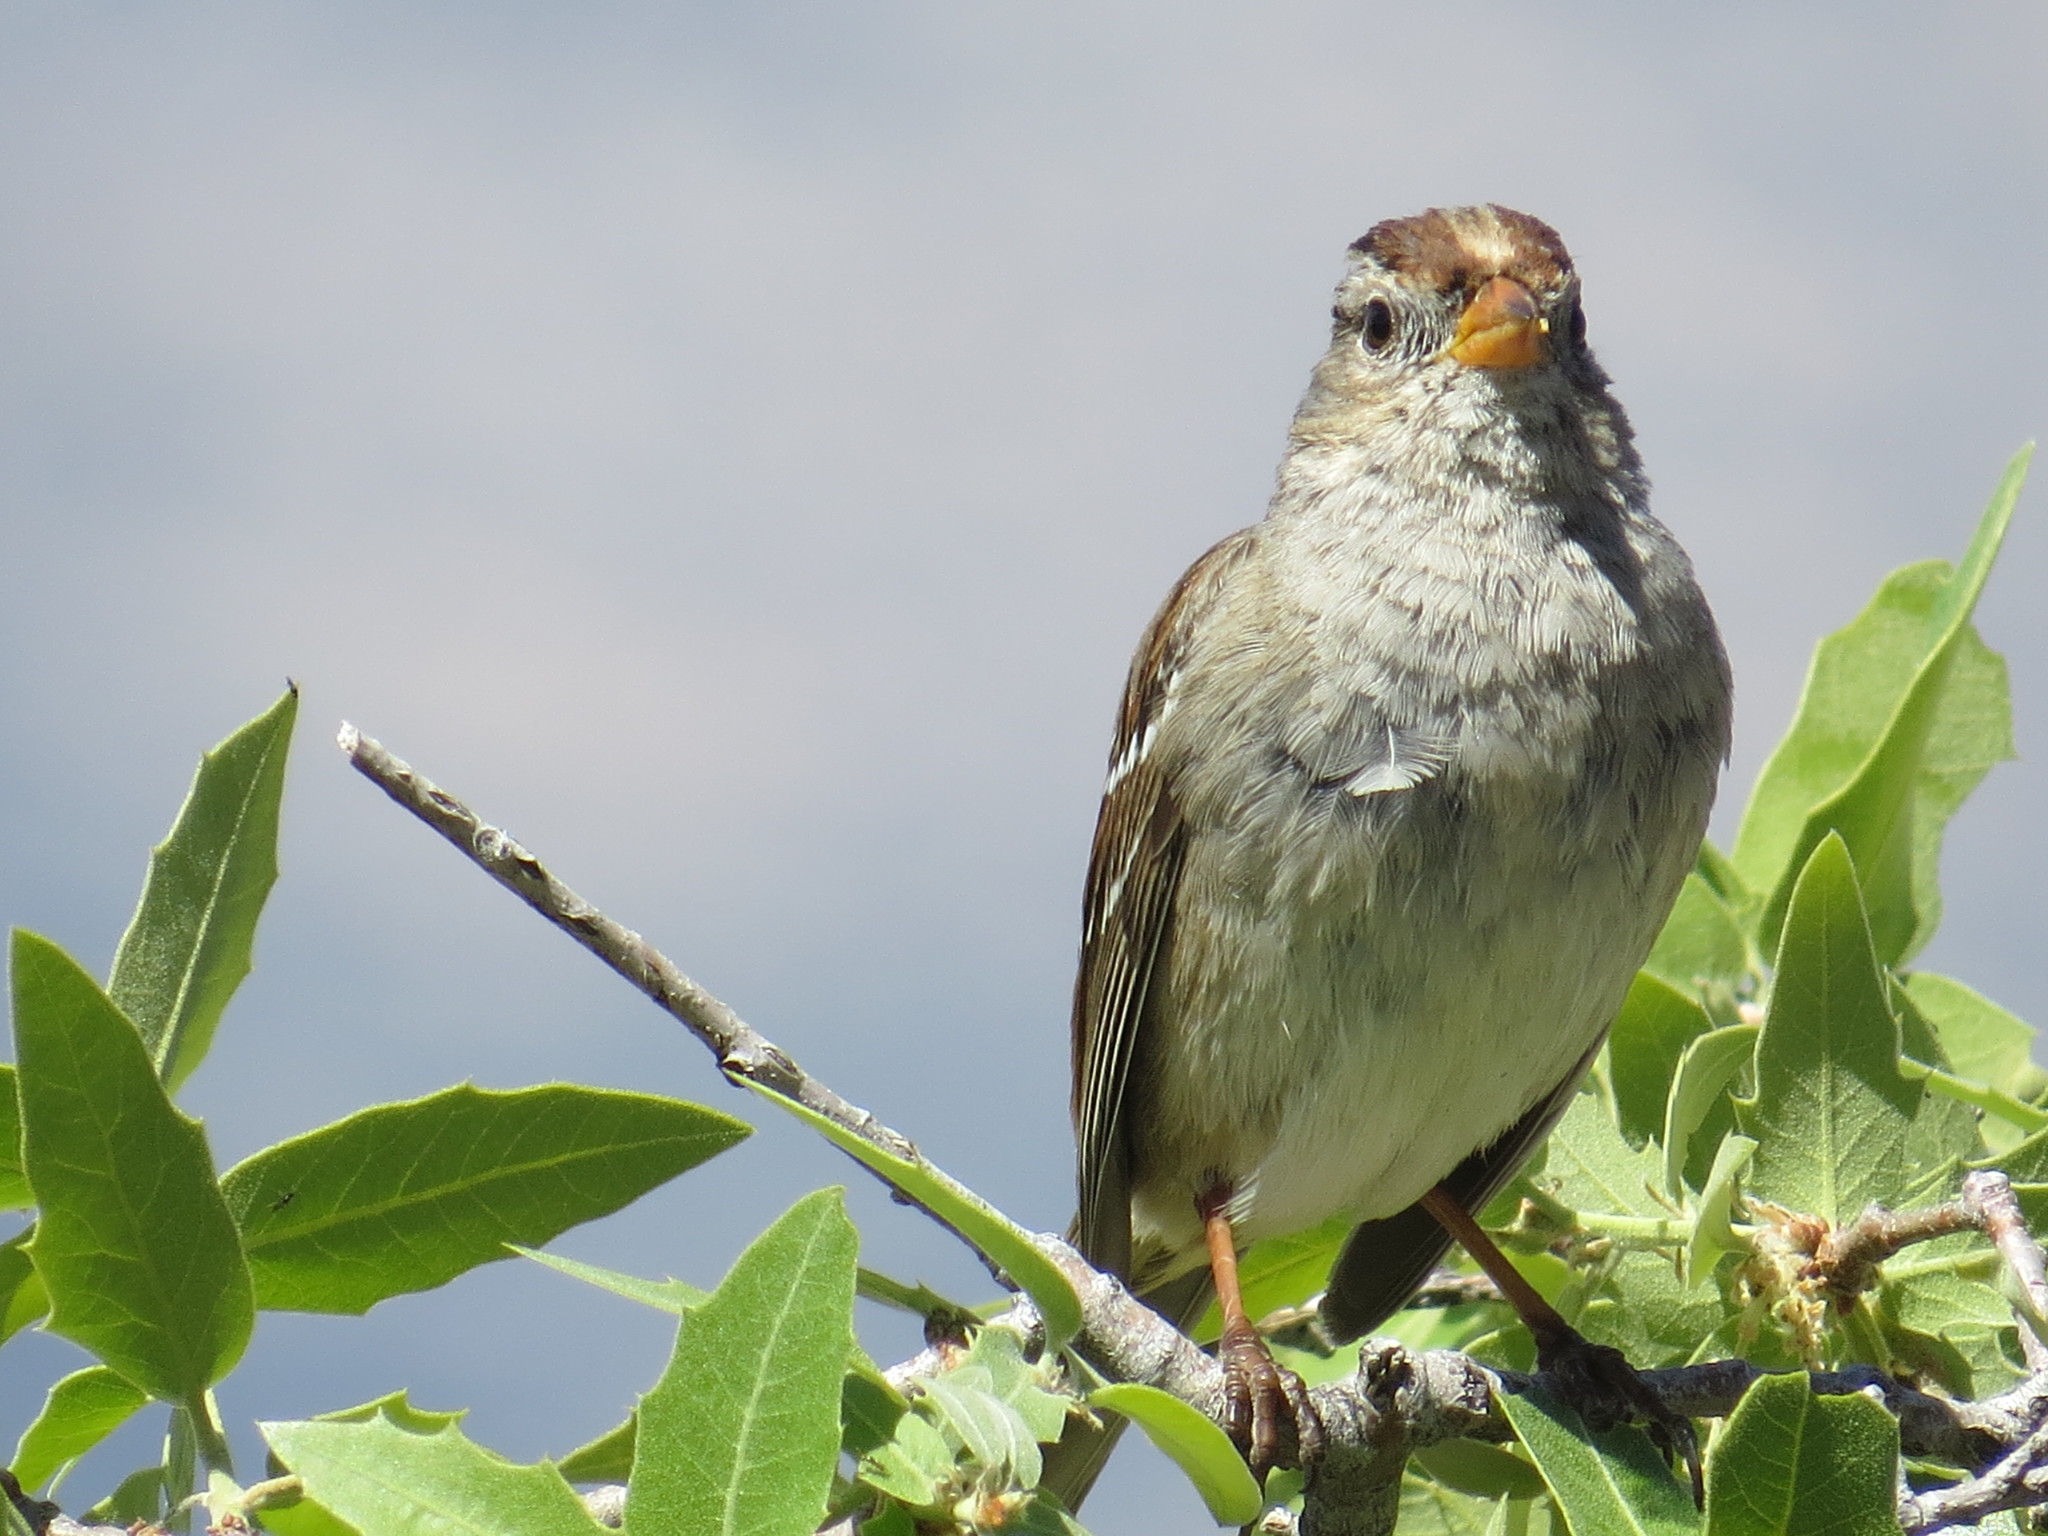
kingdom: Animalia
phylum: Chordata
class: Aves
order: Passeriformes
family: Passerellidae
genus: Zonotrichia
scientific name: Zonotrichia leucophrys
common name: White-crowned sparrow
